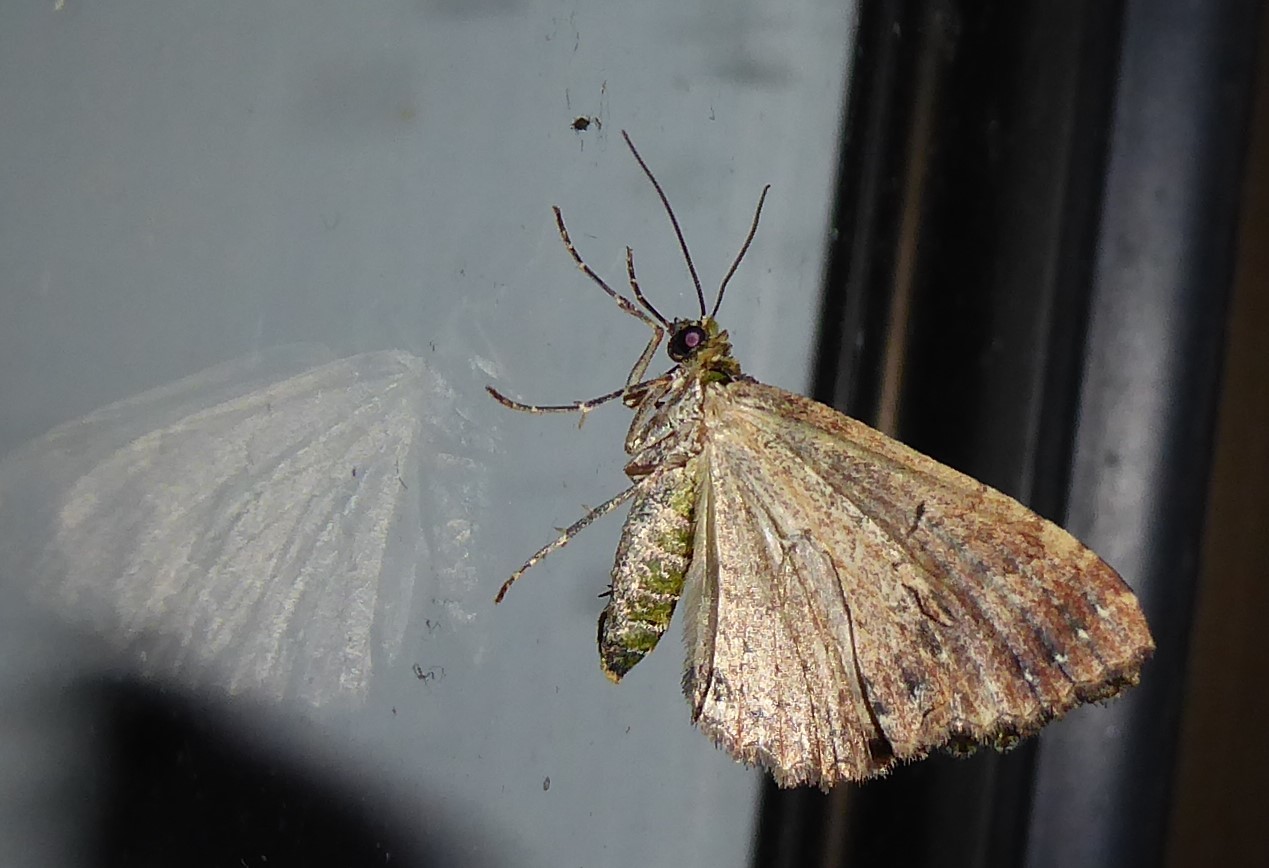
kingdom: Animalia
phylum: Arthropoda
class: Insecta
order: Lepidoptera
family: Geometridae
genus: Austrocidaria
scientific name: Austrocidaria similata
